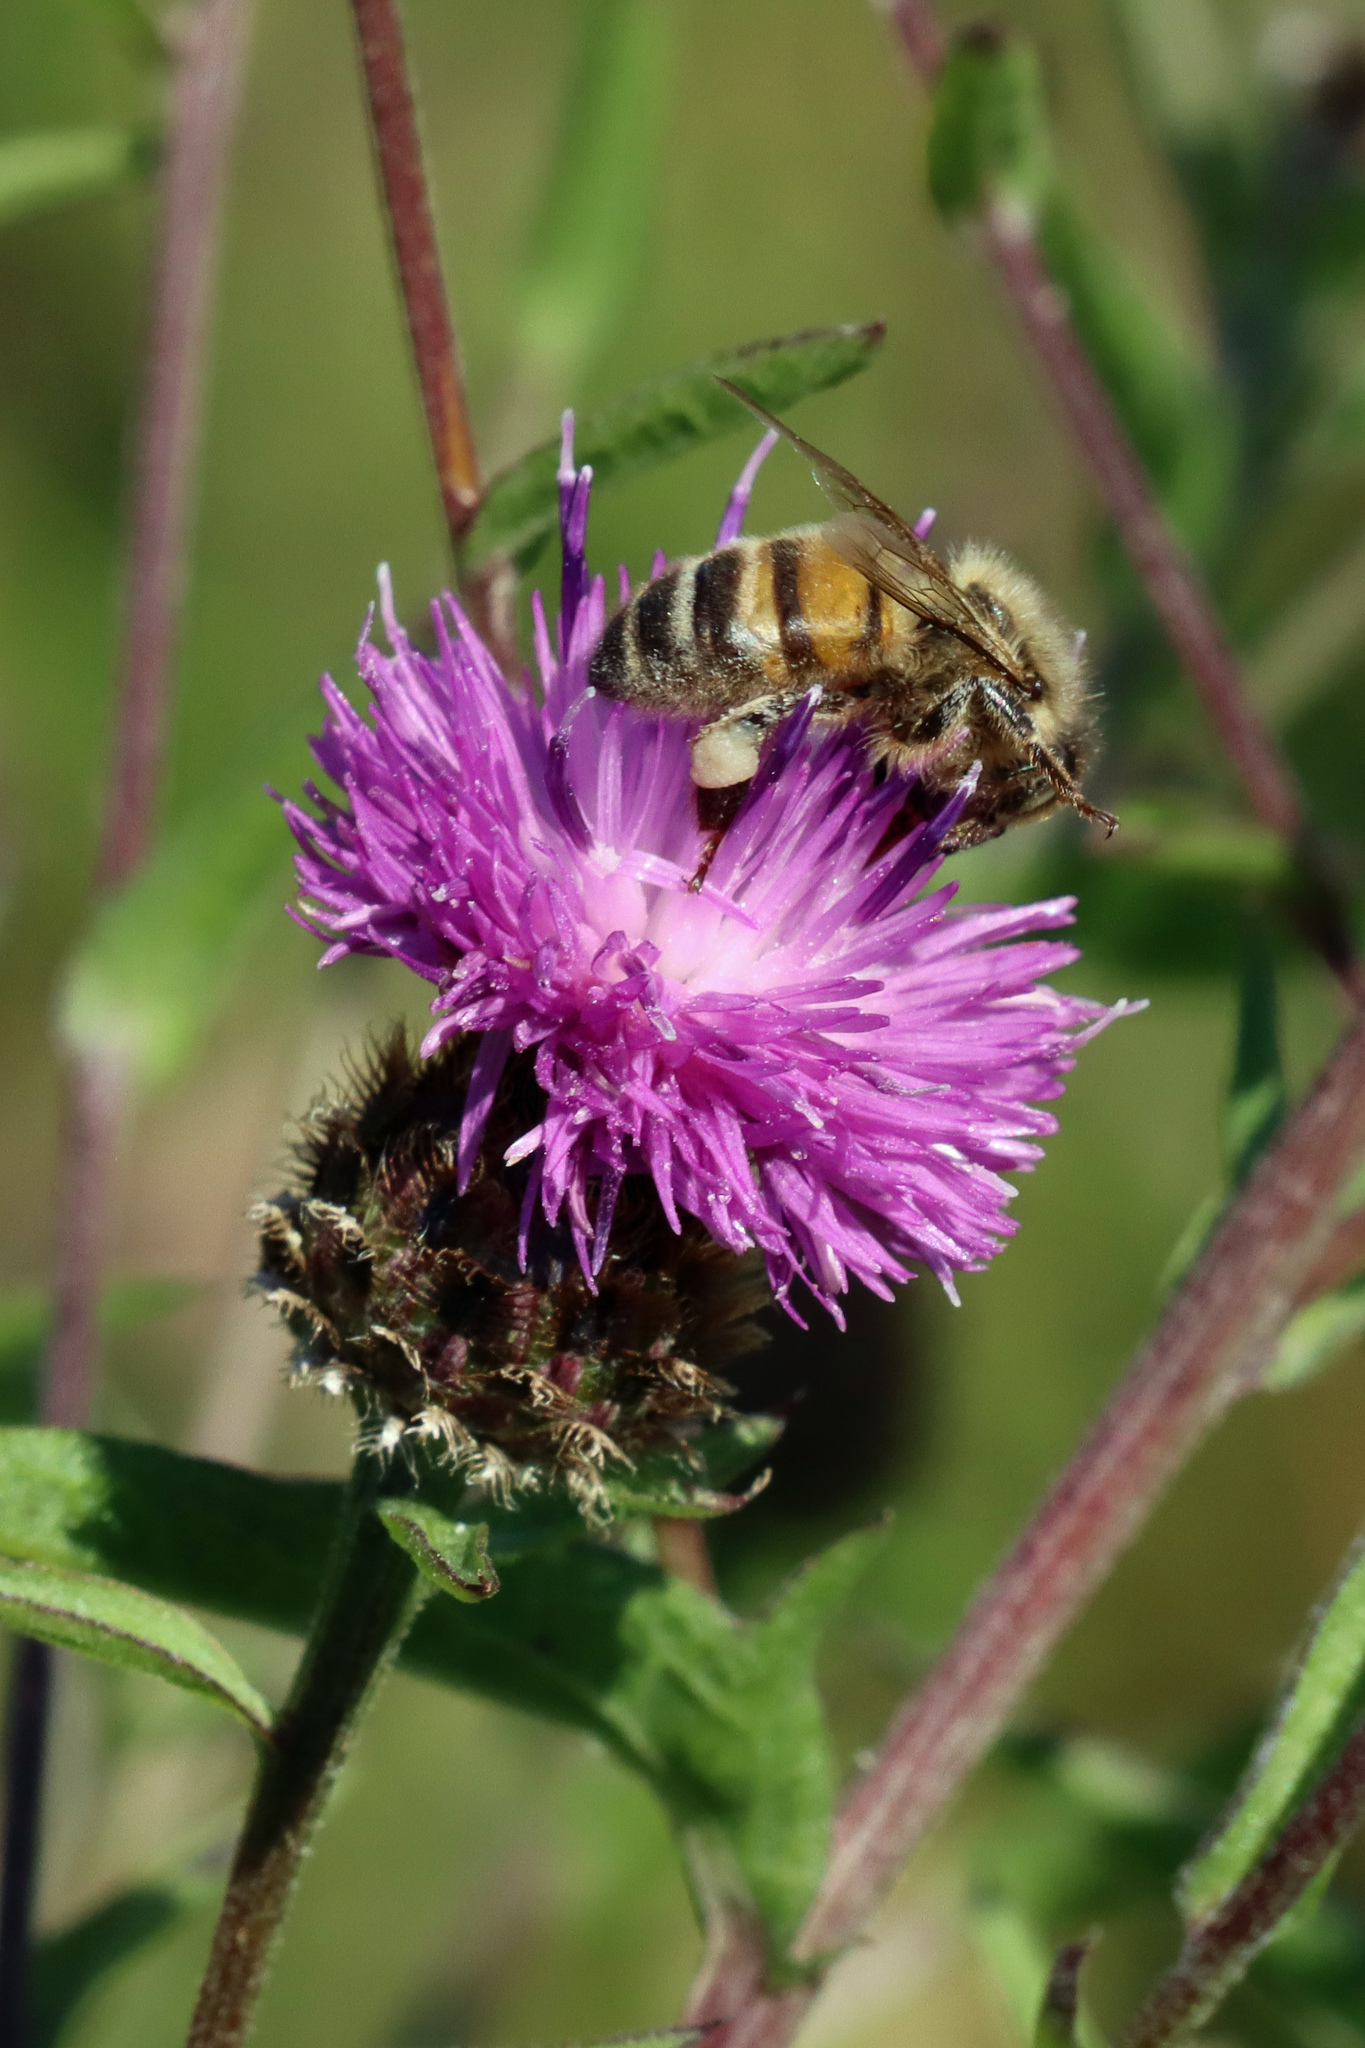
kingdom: Animalia
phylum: Arthropoda
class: Insecta
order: Hymenoptera
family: Apidae
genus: Apis
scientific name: Apis mellifera
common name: Honey bee
